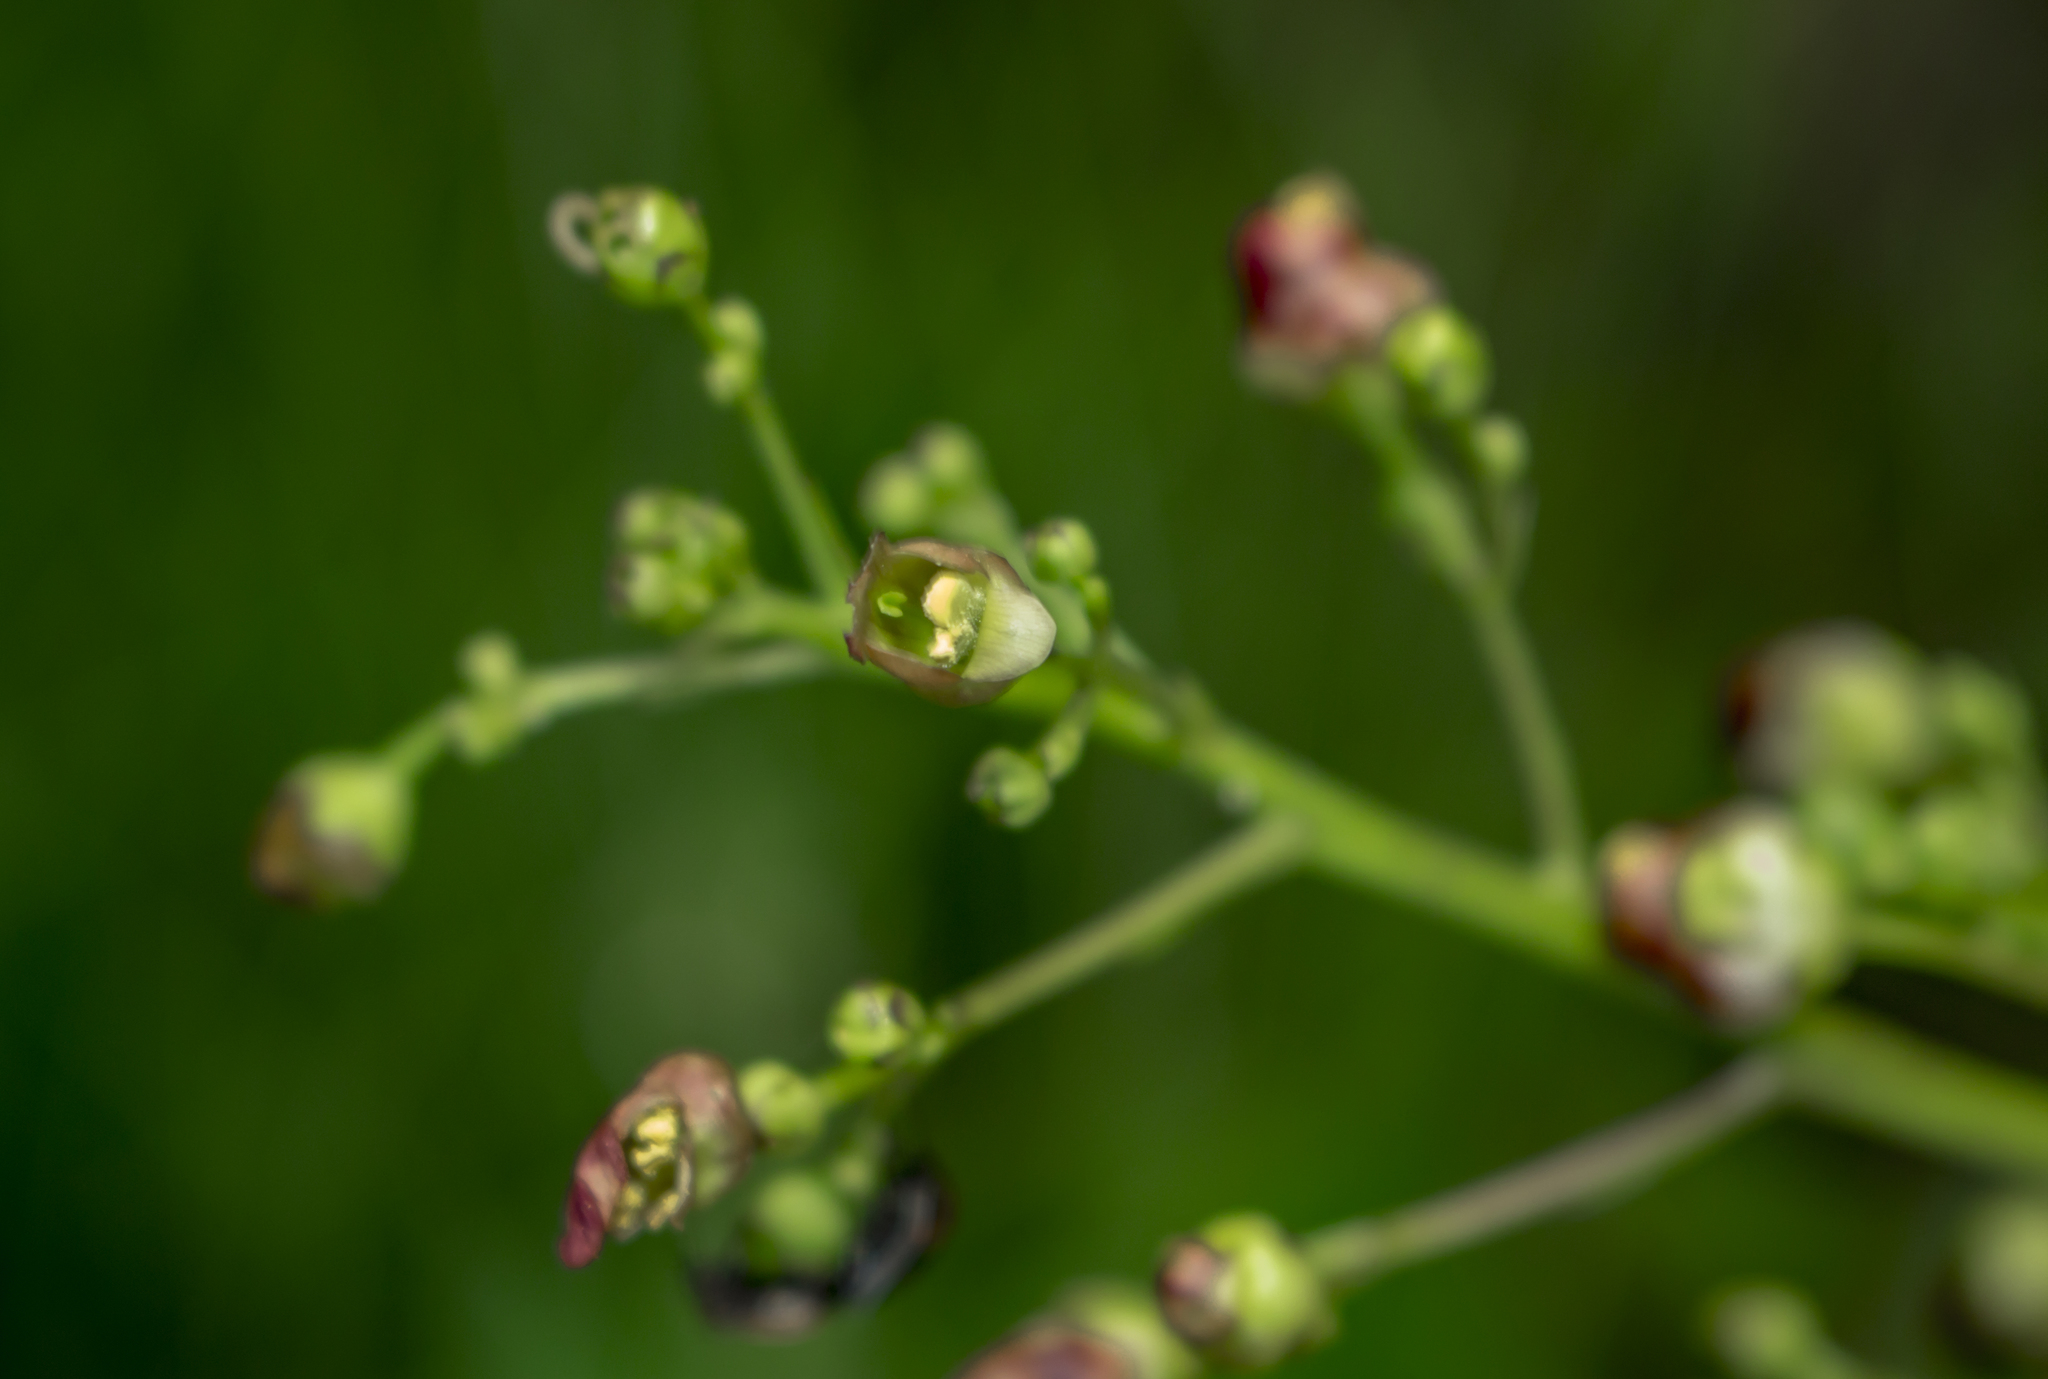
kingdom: Plantae
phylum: Tracheophyta
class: Magnoliopsida
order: Lamiales
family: Scrophulariaceae
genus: Scrophularia
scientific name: Scrophularia lanceolata
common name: American figwort
